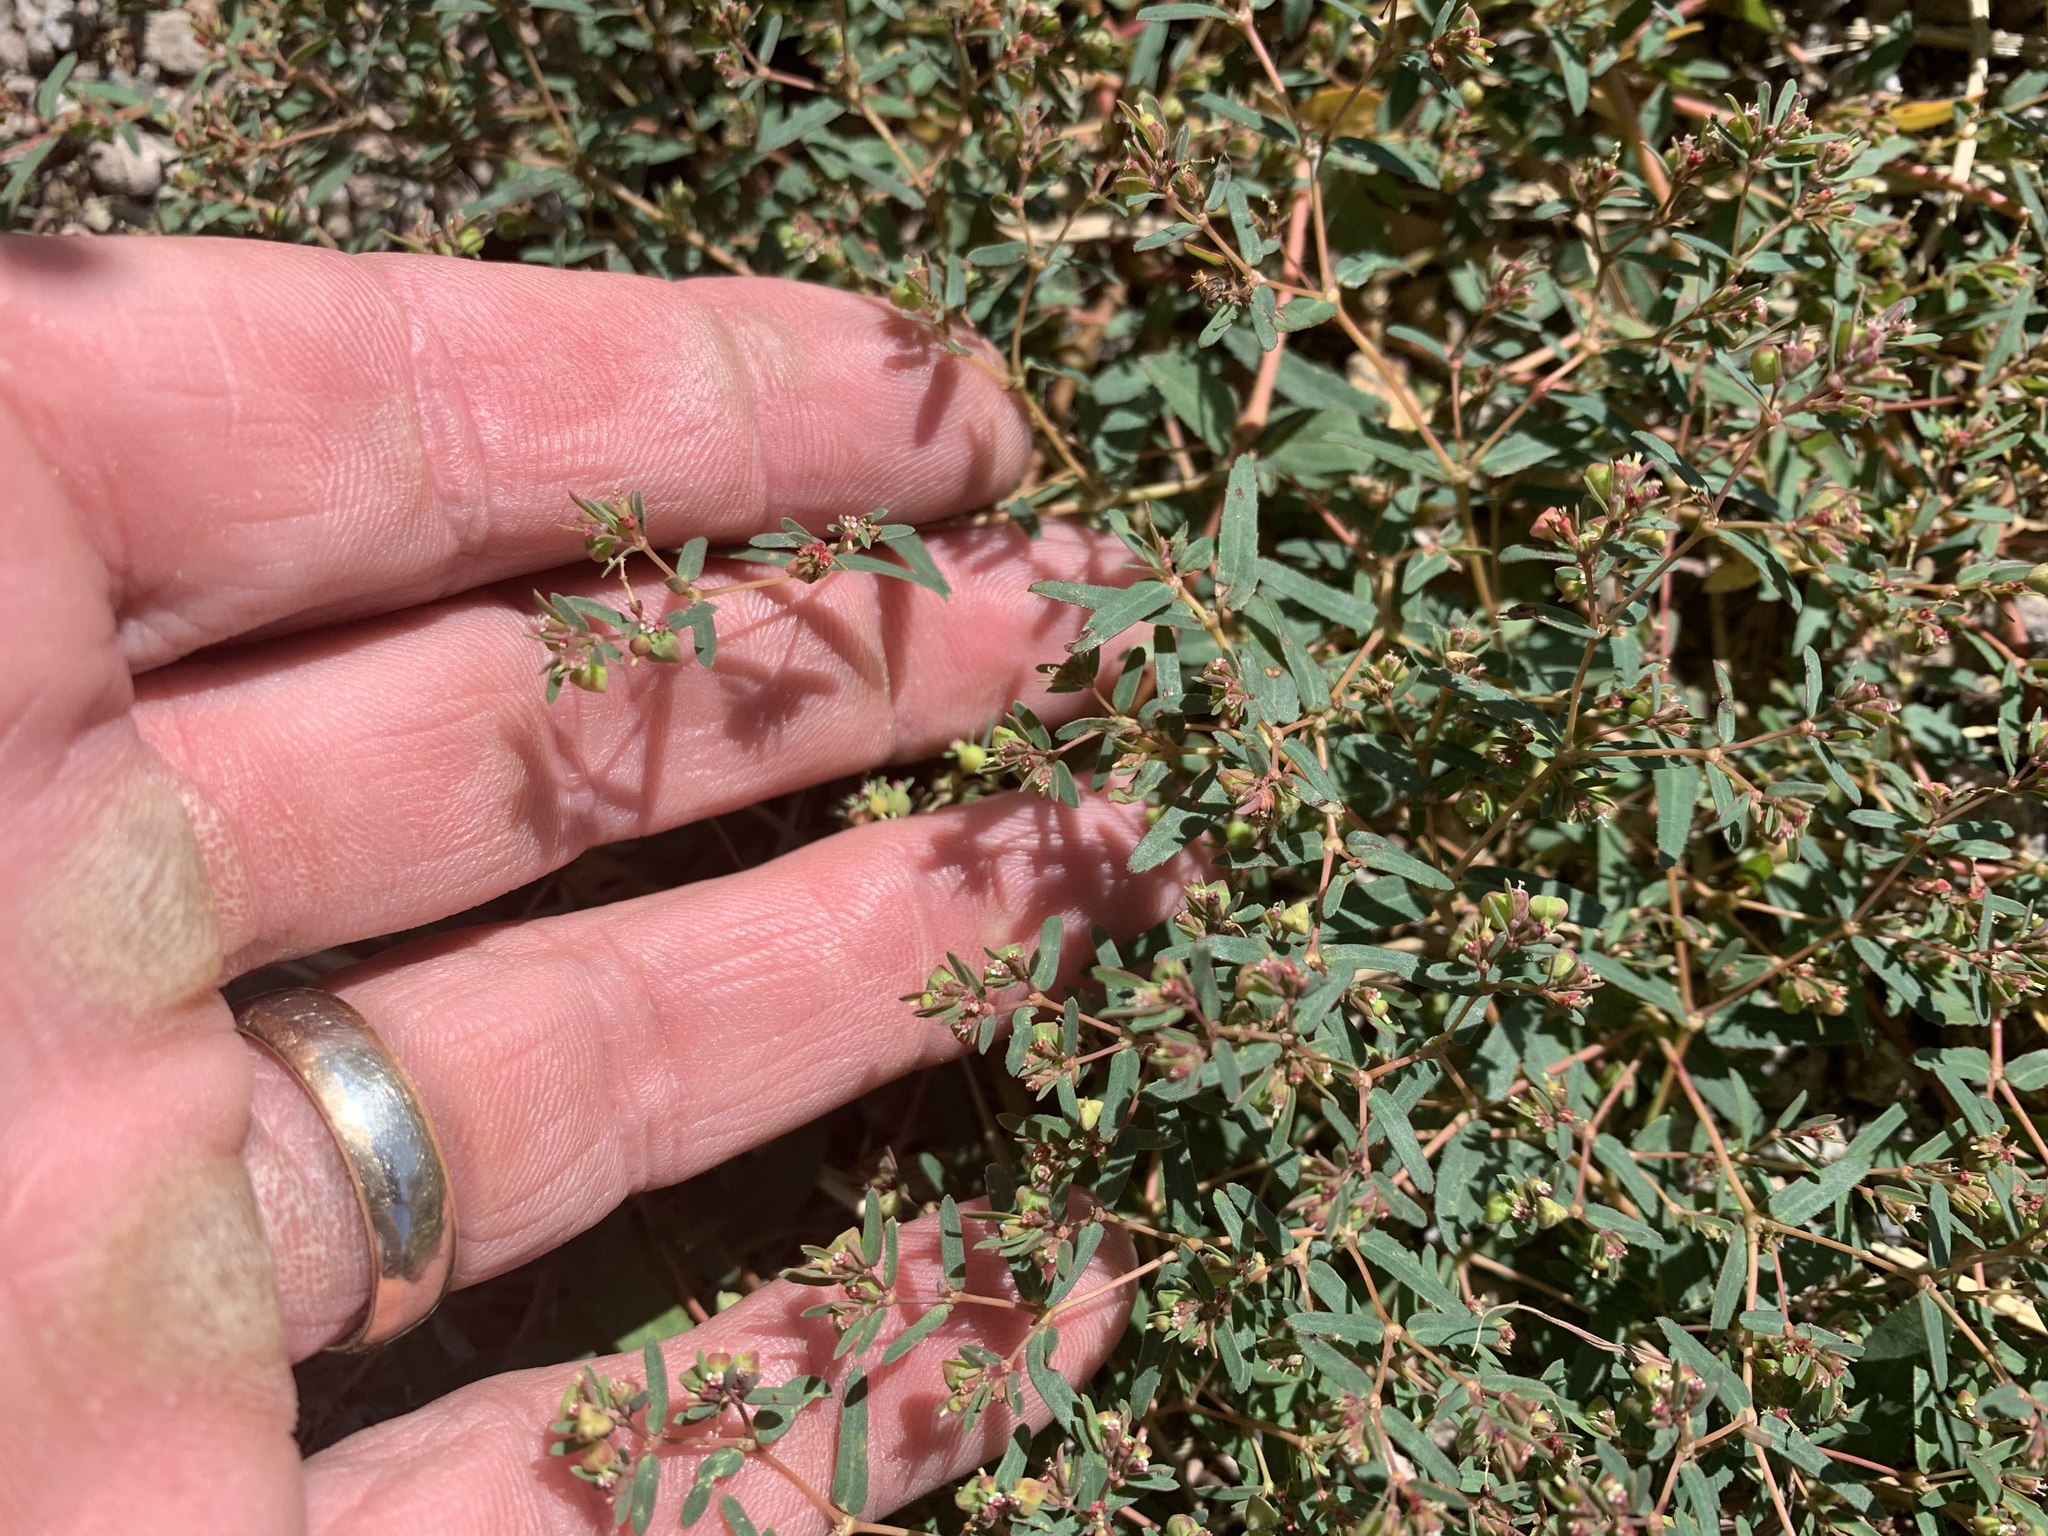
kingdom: Plantae
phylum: Tracheophyta
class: Magnoliopsida
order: Malpighiales
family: Euphorbiaceae
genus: Euphorbia
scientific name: Euphorbia hyssopifolia
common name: Hyssopleaf sandmat
